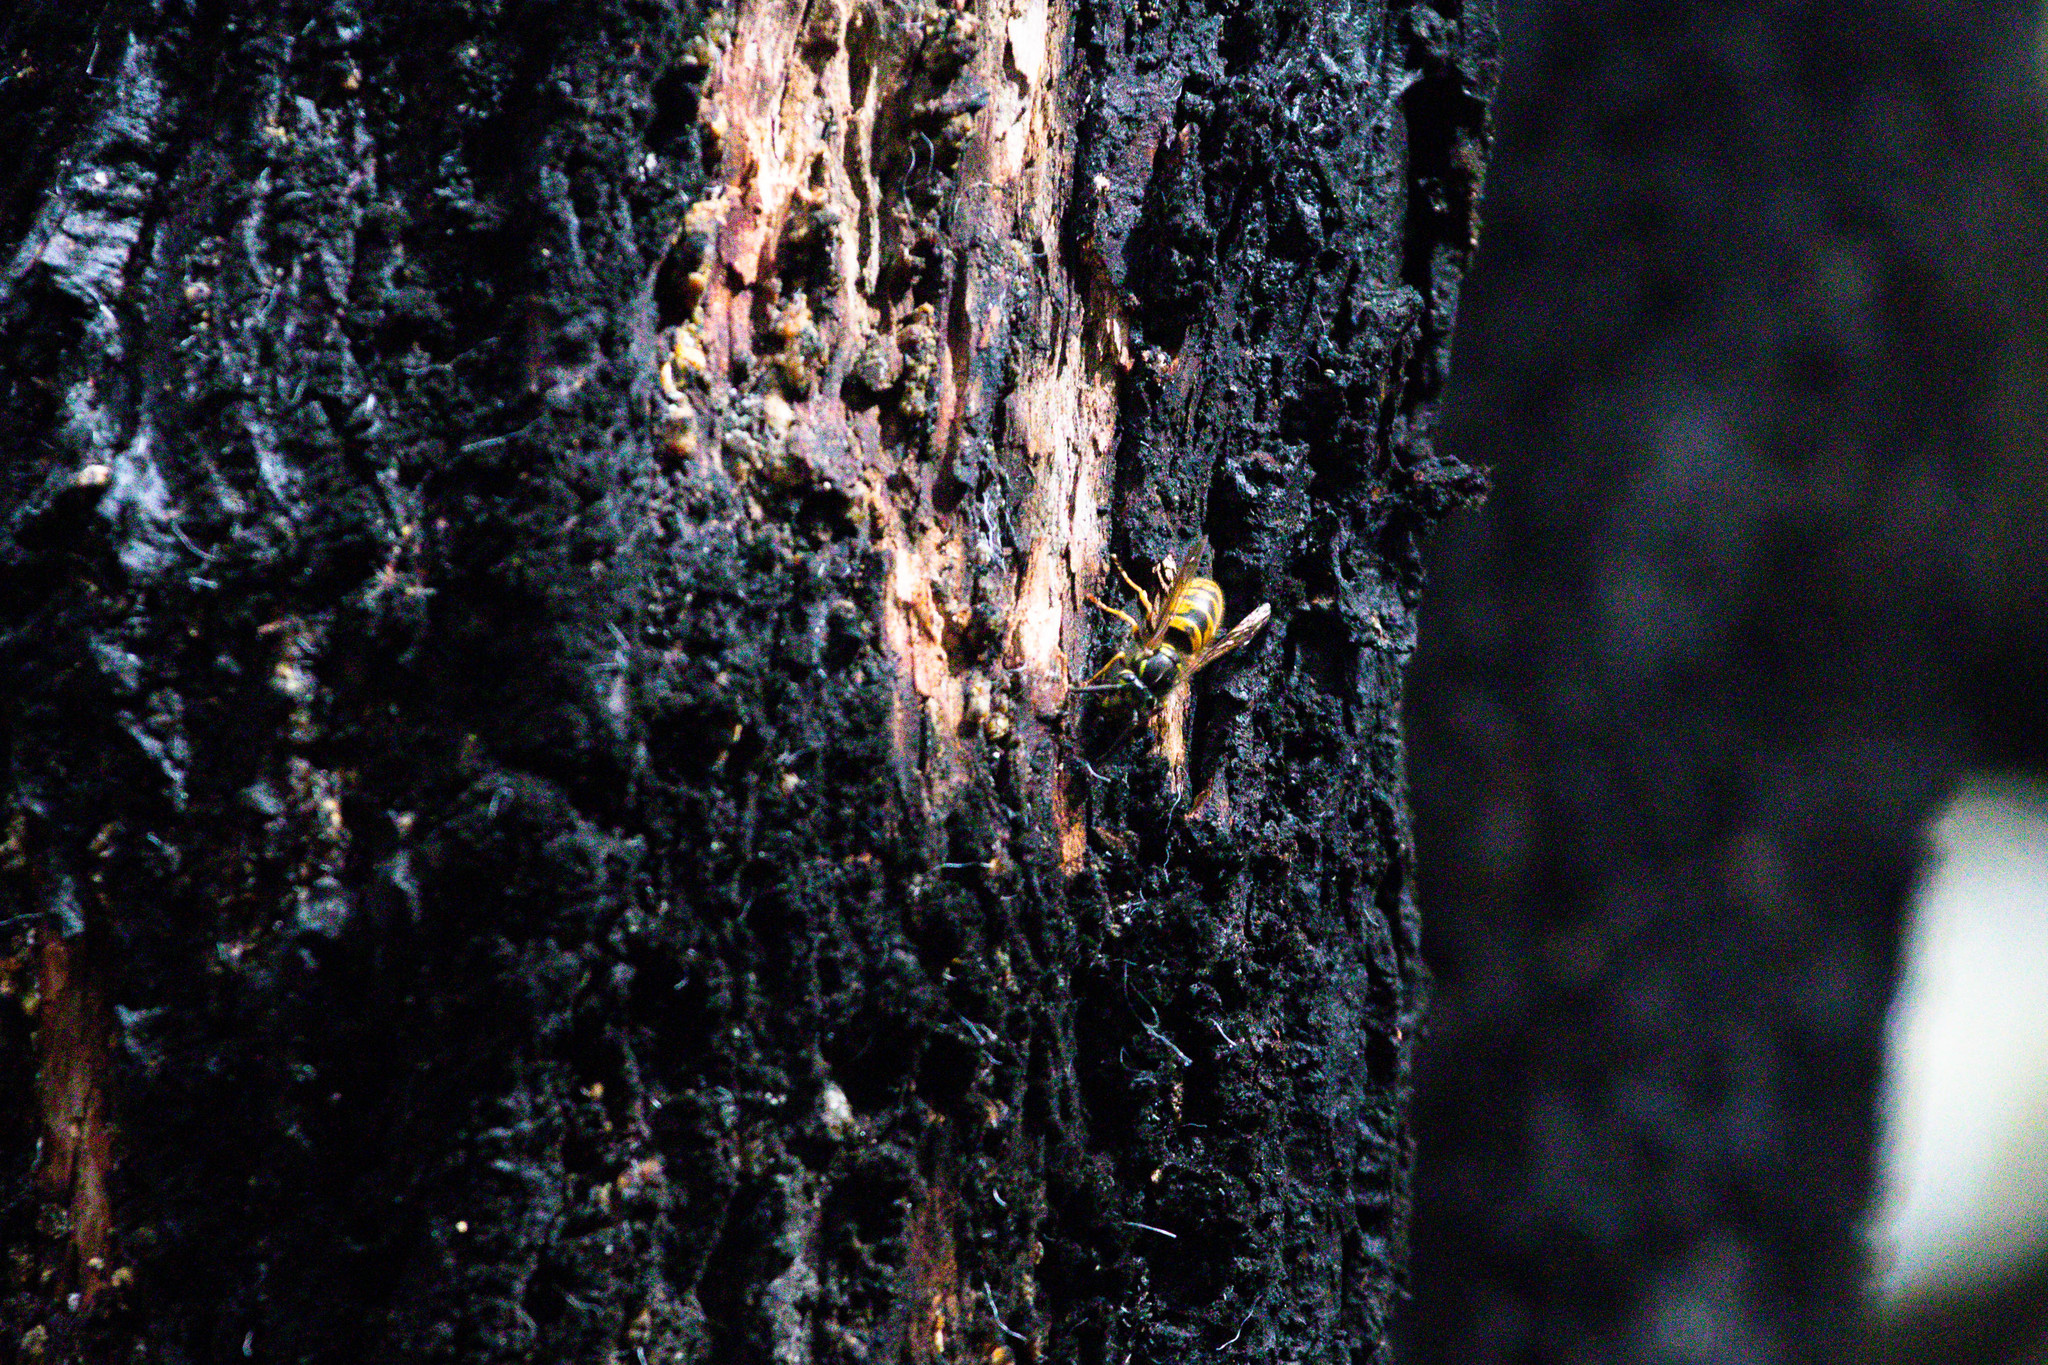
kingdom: Animalia
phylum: Arthropoda
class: Insecta
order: Hymenoptera
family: Vespidae
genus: Vespula
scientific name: Vespula vulgaris
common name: Common wasp
